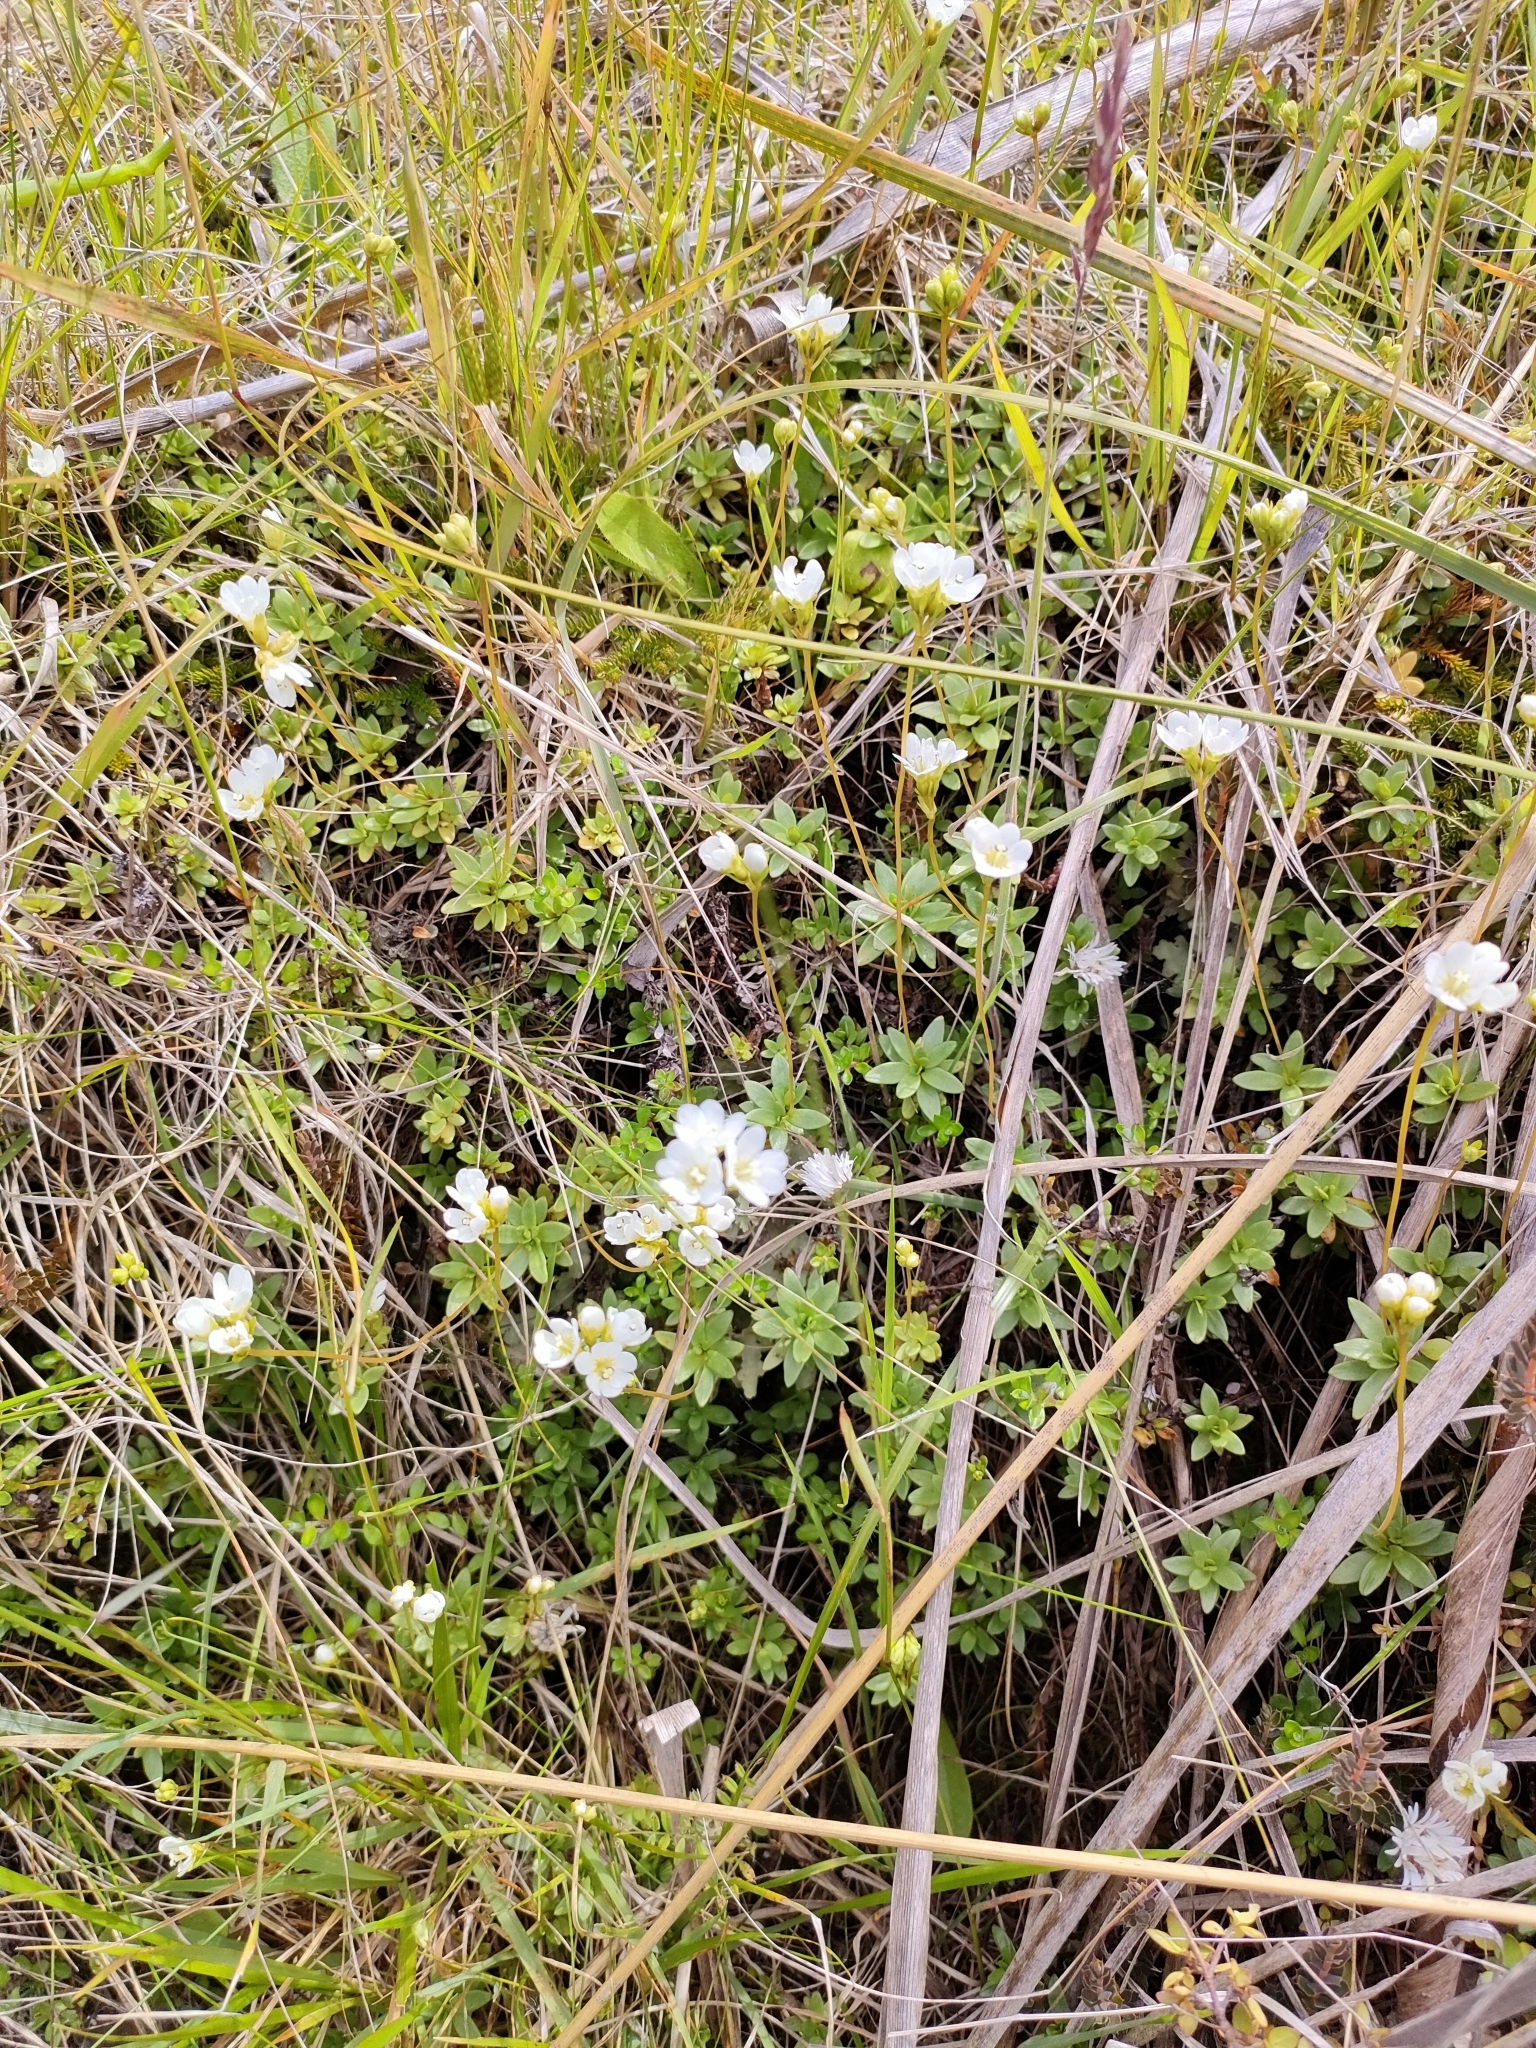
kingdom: Plantae
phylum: Tracheophyta
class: Magnoliopsida
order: Asterales
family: Stylidiaceae
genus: Forstera
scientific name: Forstera tenella
